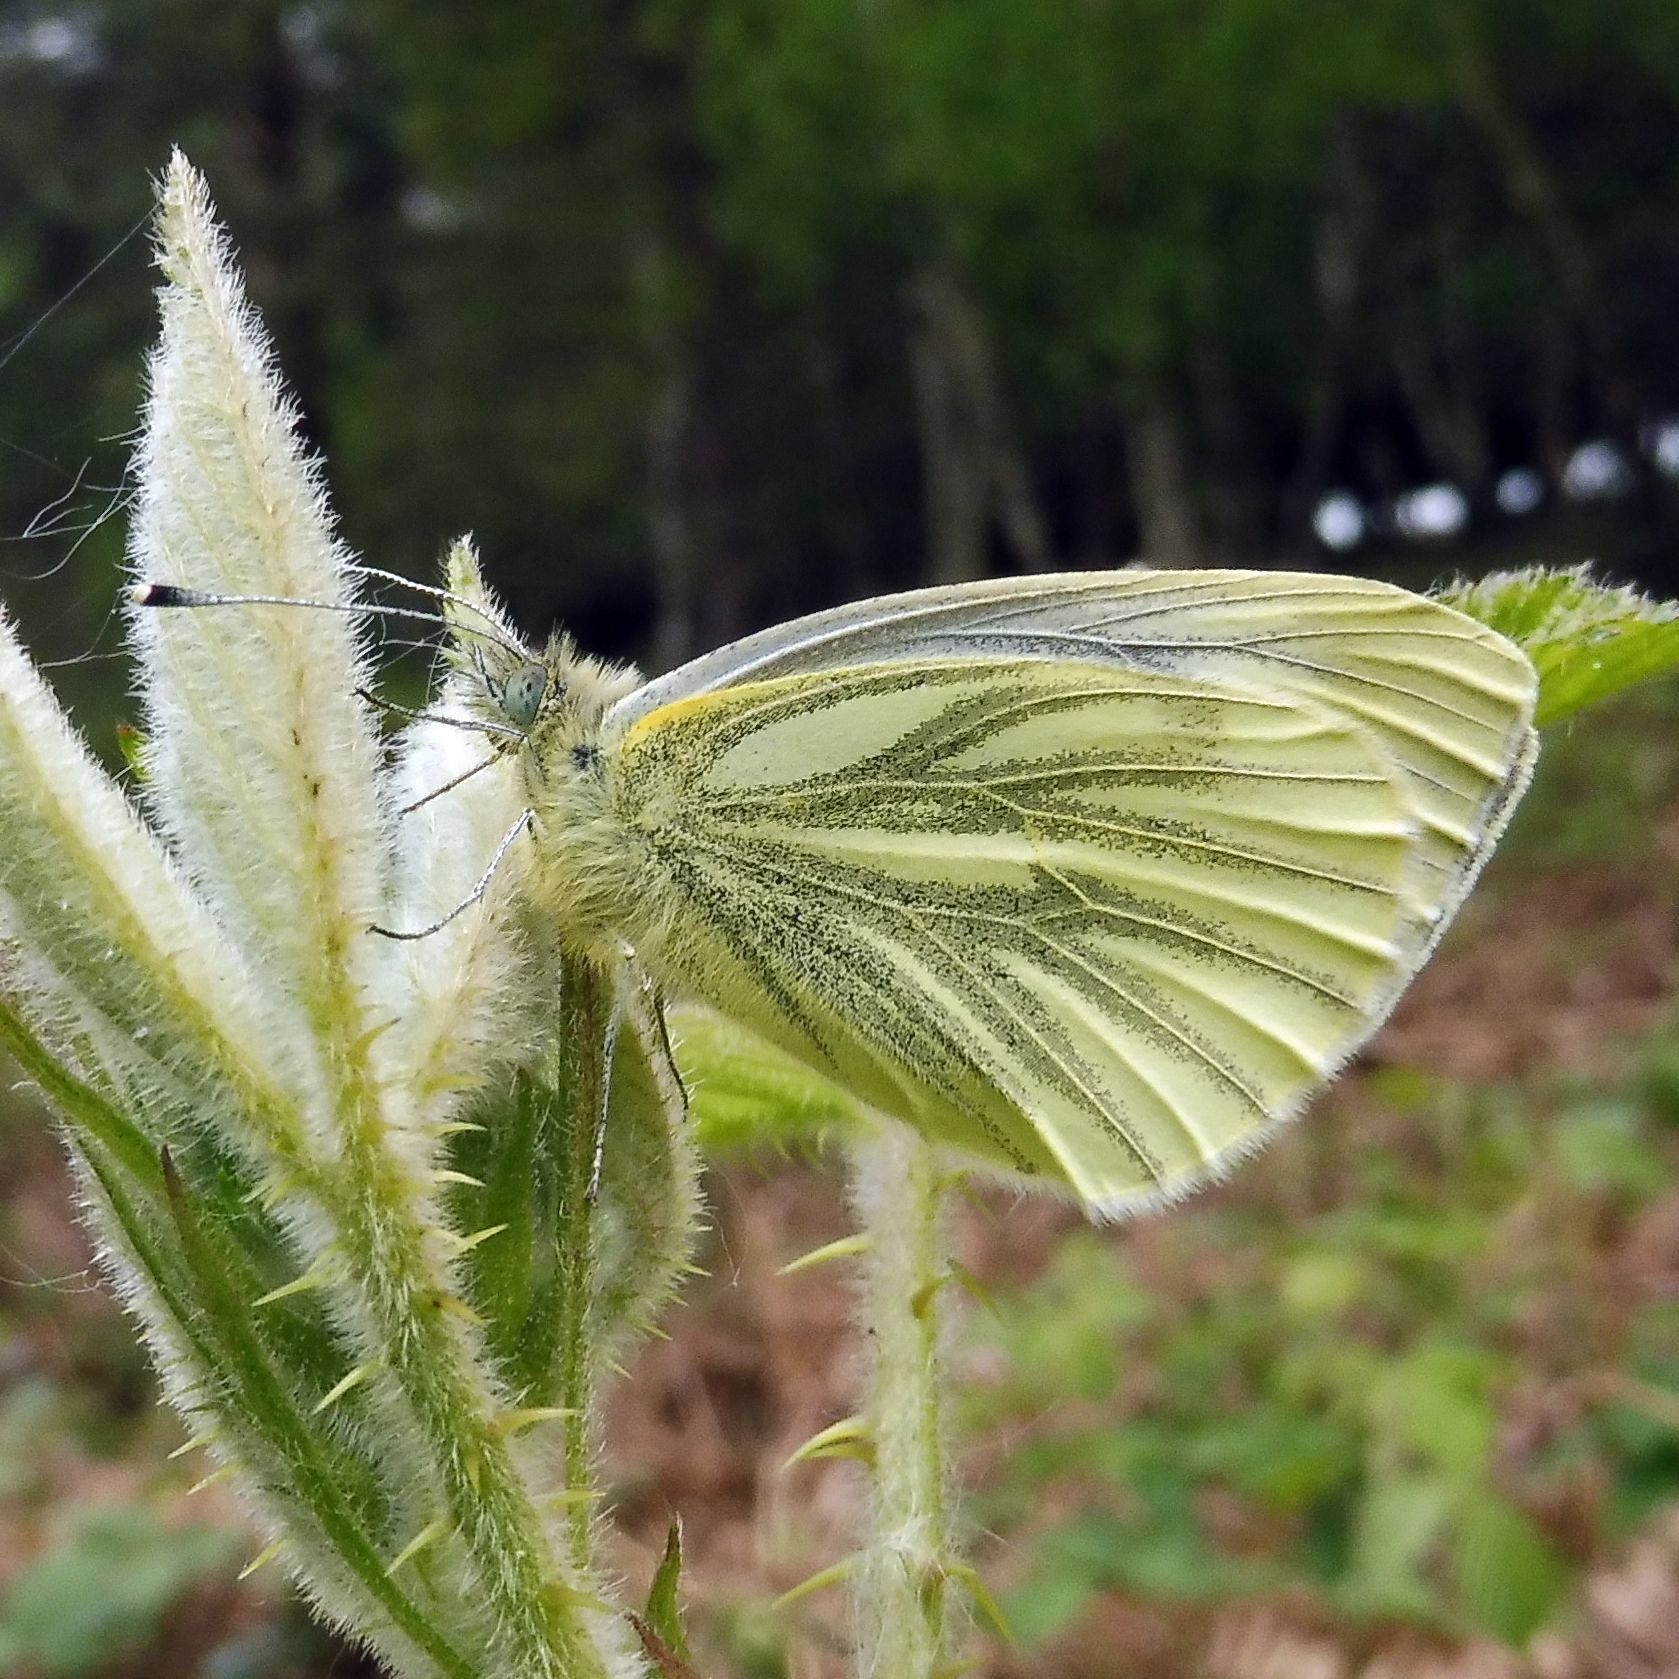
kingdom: Animalia
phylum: Arthropoda
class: Insecta
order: Lepidoptera
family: Pieridae
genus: Pieris
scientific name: Pieris napi
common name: Green-veined white
